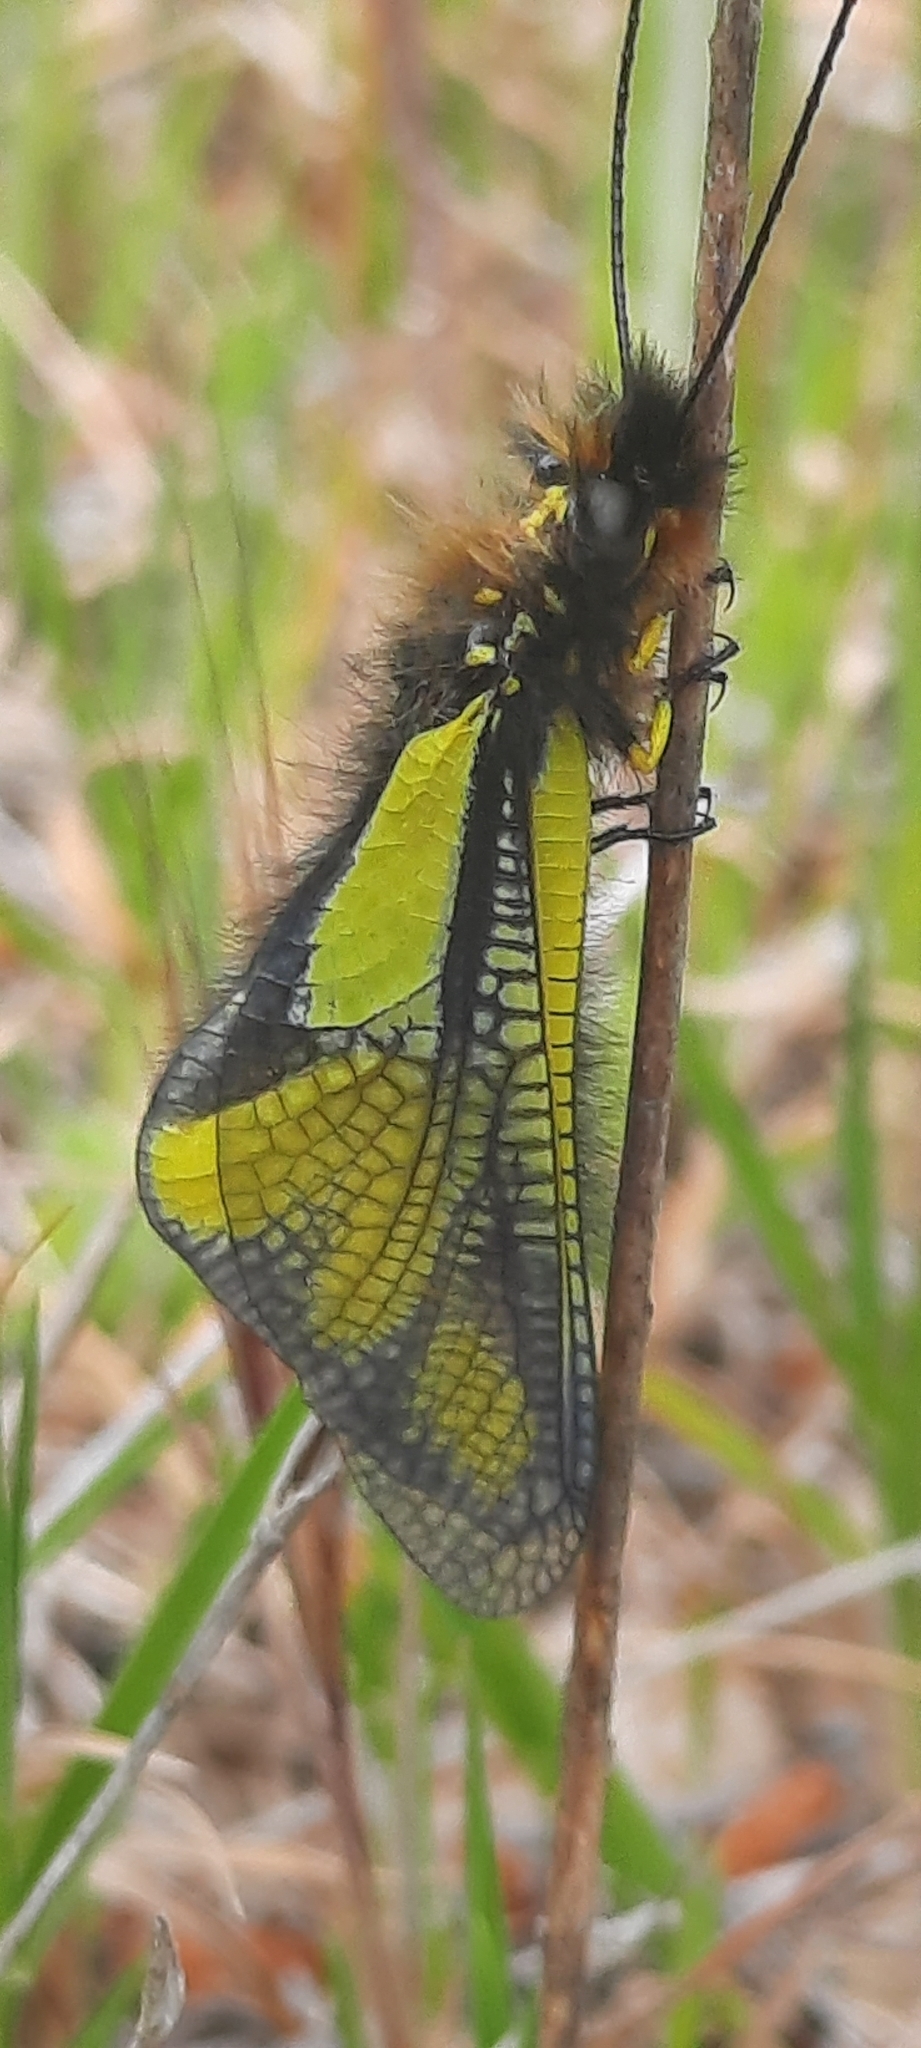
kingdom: Animalia
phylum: Arthropoda
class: Insecta
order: Neuroptera
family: Ascalaphidae
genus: Libelloides
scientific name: Libelloides coccajus
